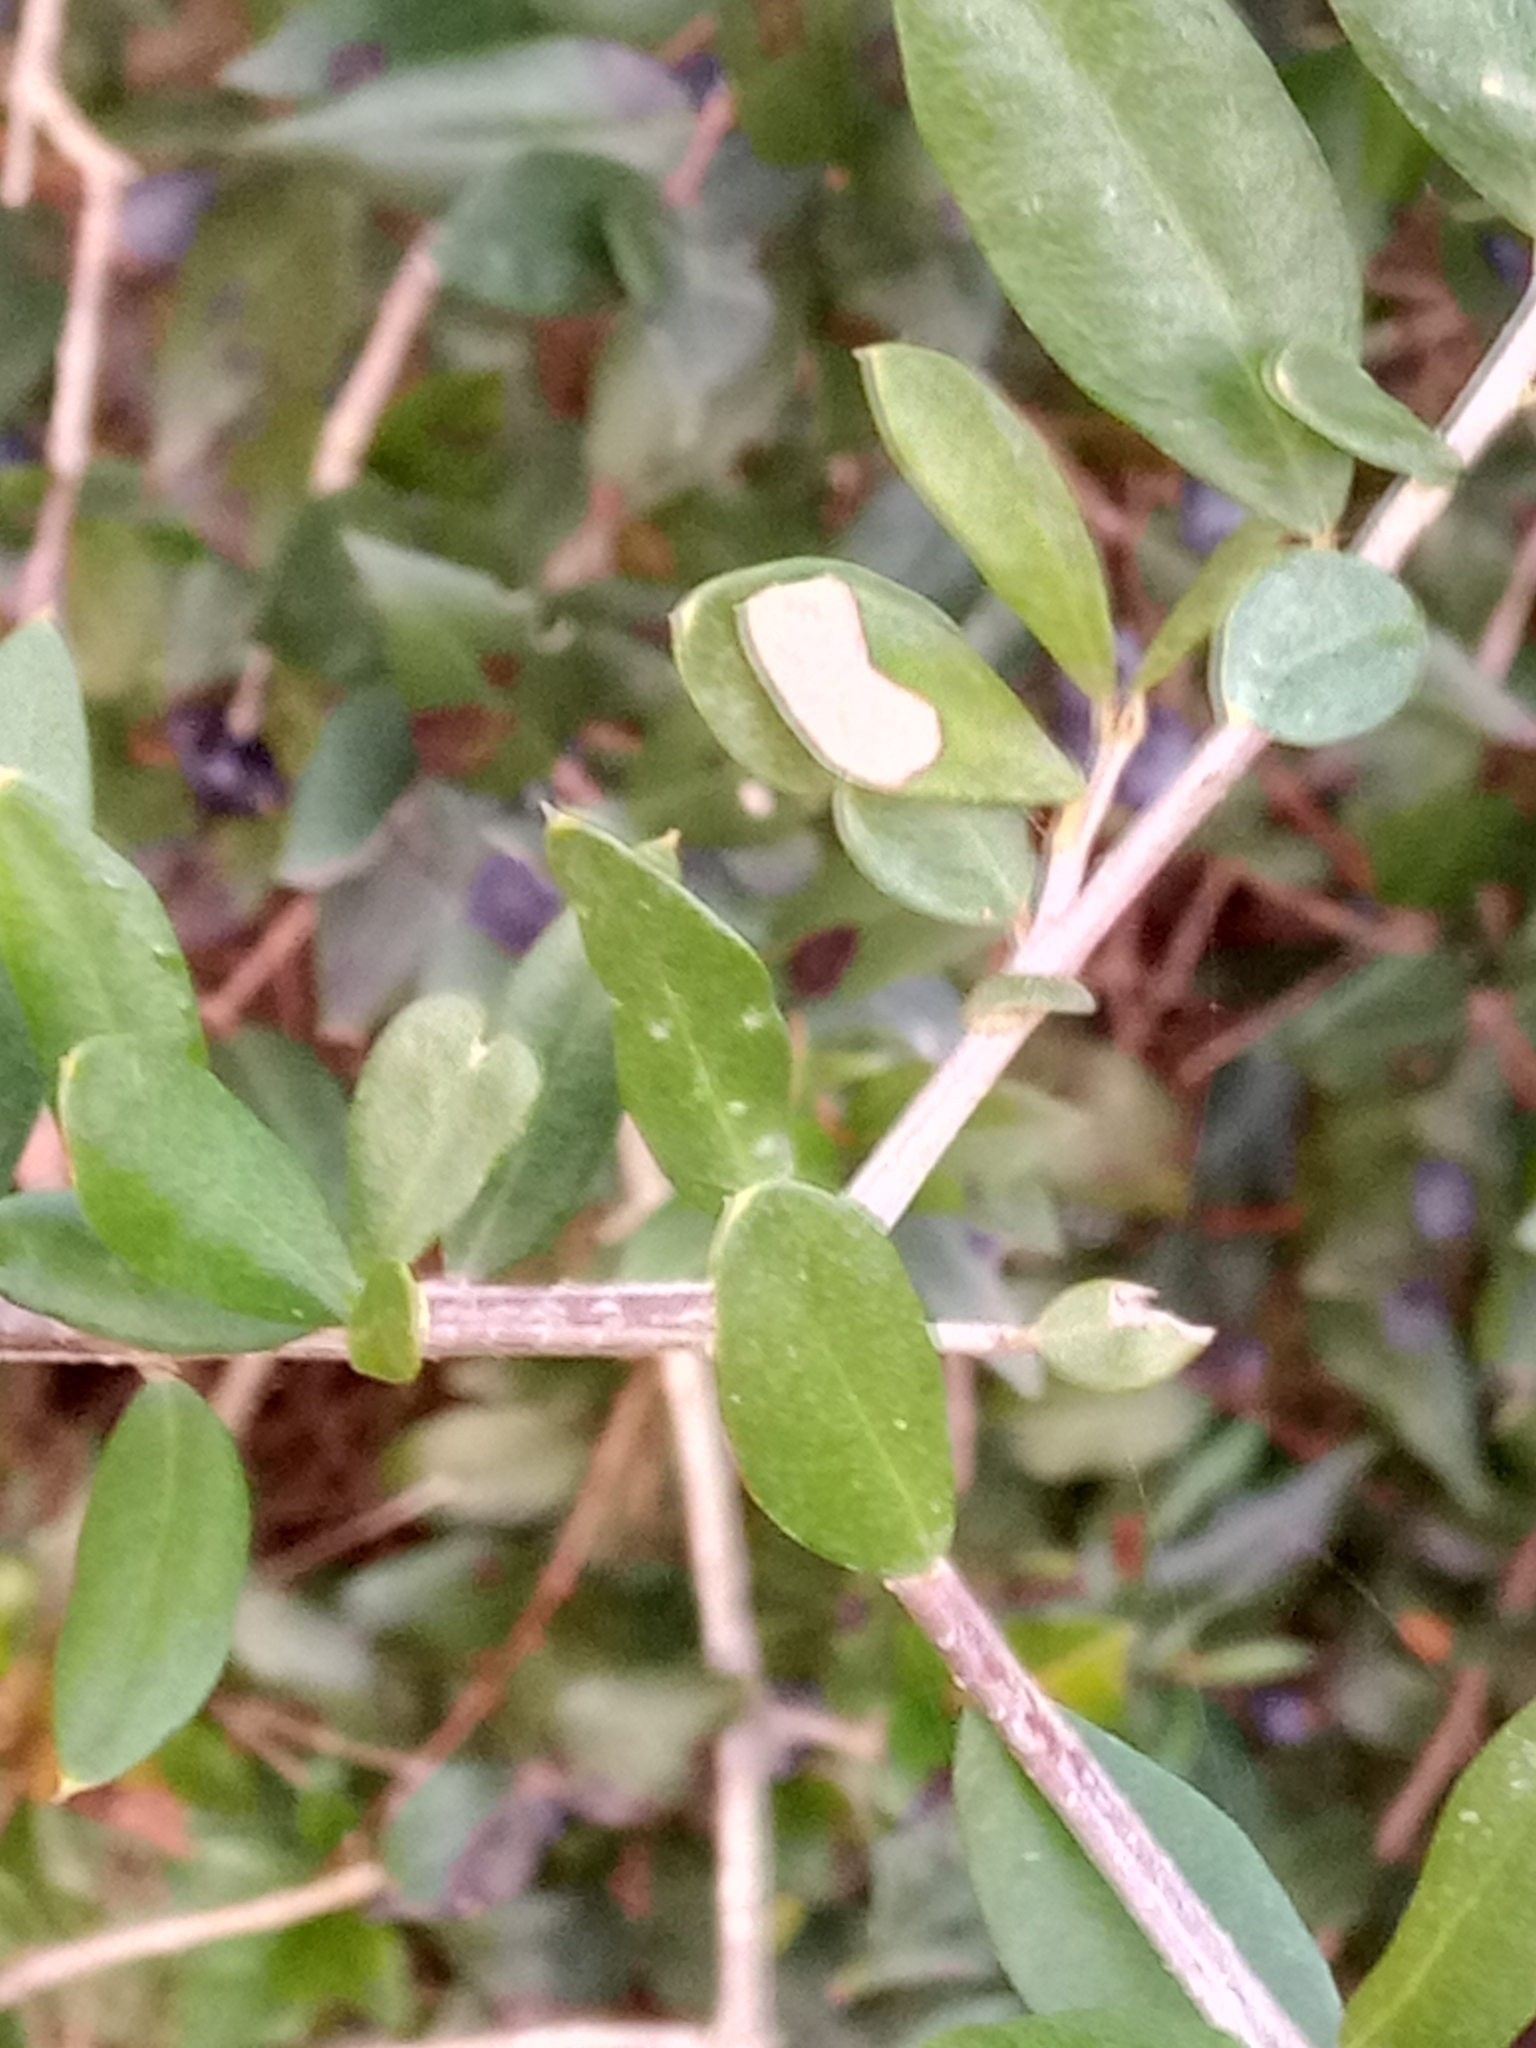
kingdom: Plantae
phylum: Tracheophyta
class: Magnoliopsida
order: Myrtales
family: Myrtaceae
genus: Myrtus
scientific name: Myrtus communis
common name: Myrtle
